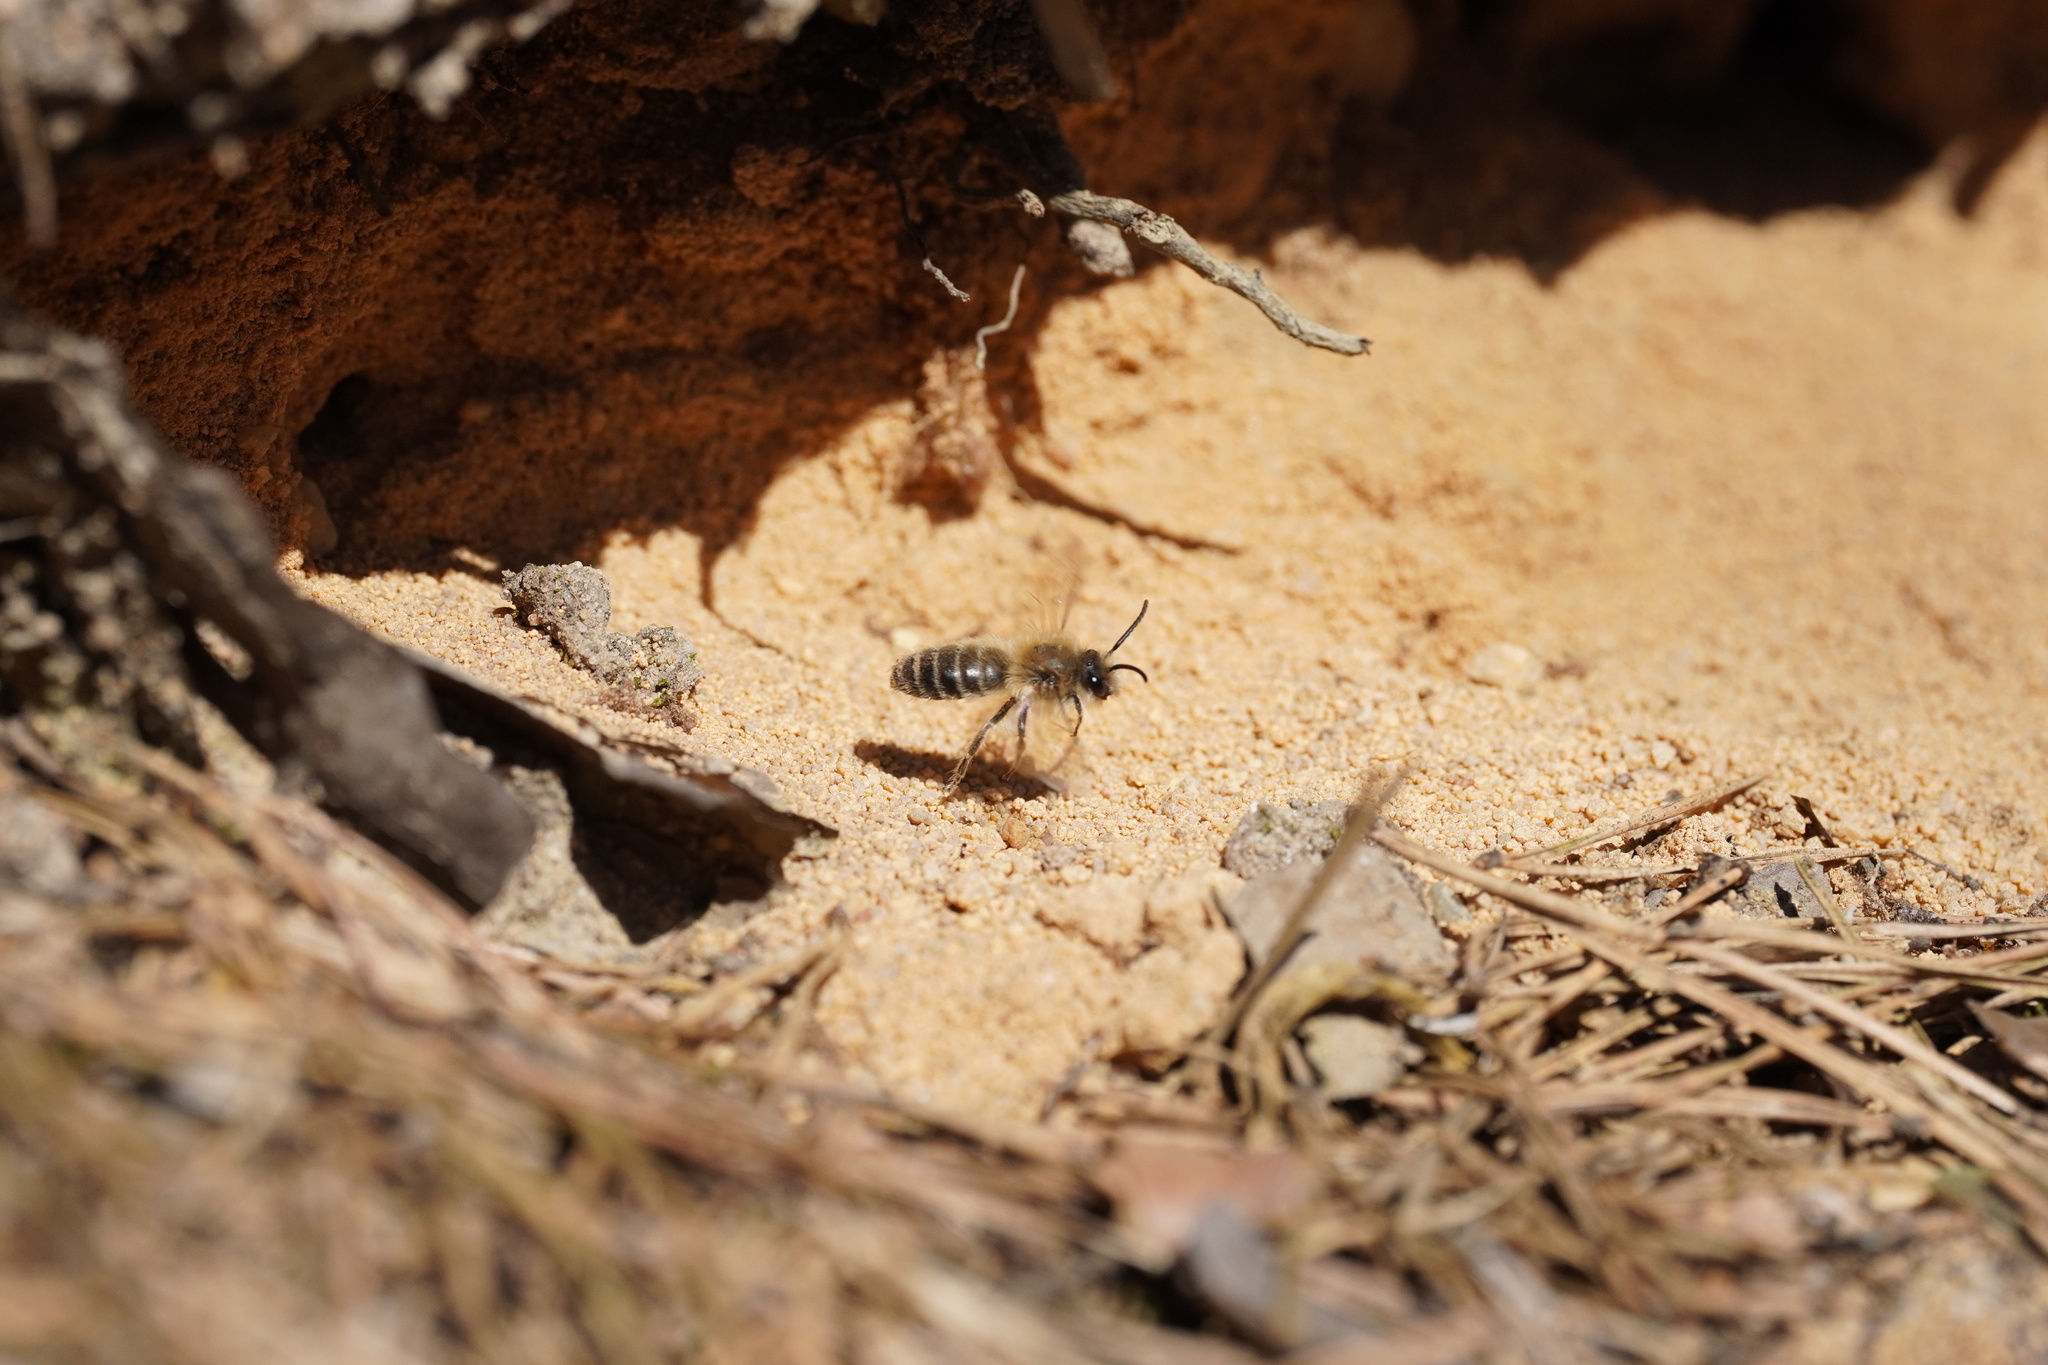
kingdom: Animalia
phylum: Arthropoda
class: Insecta
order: Hymenoptera
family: Colletidae
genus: Colletes
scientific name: Colletes cunicularius
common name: Early colletes
